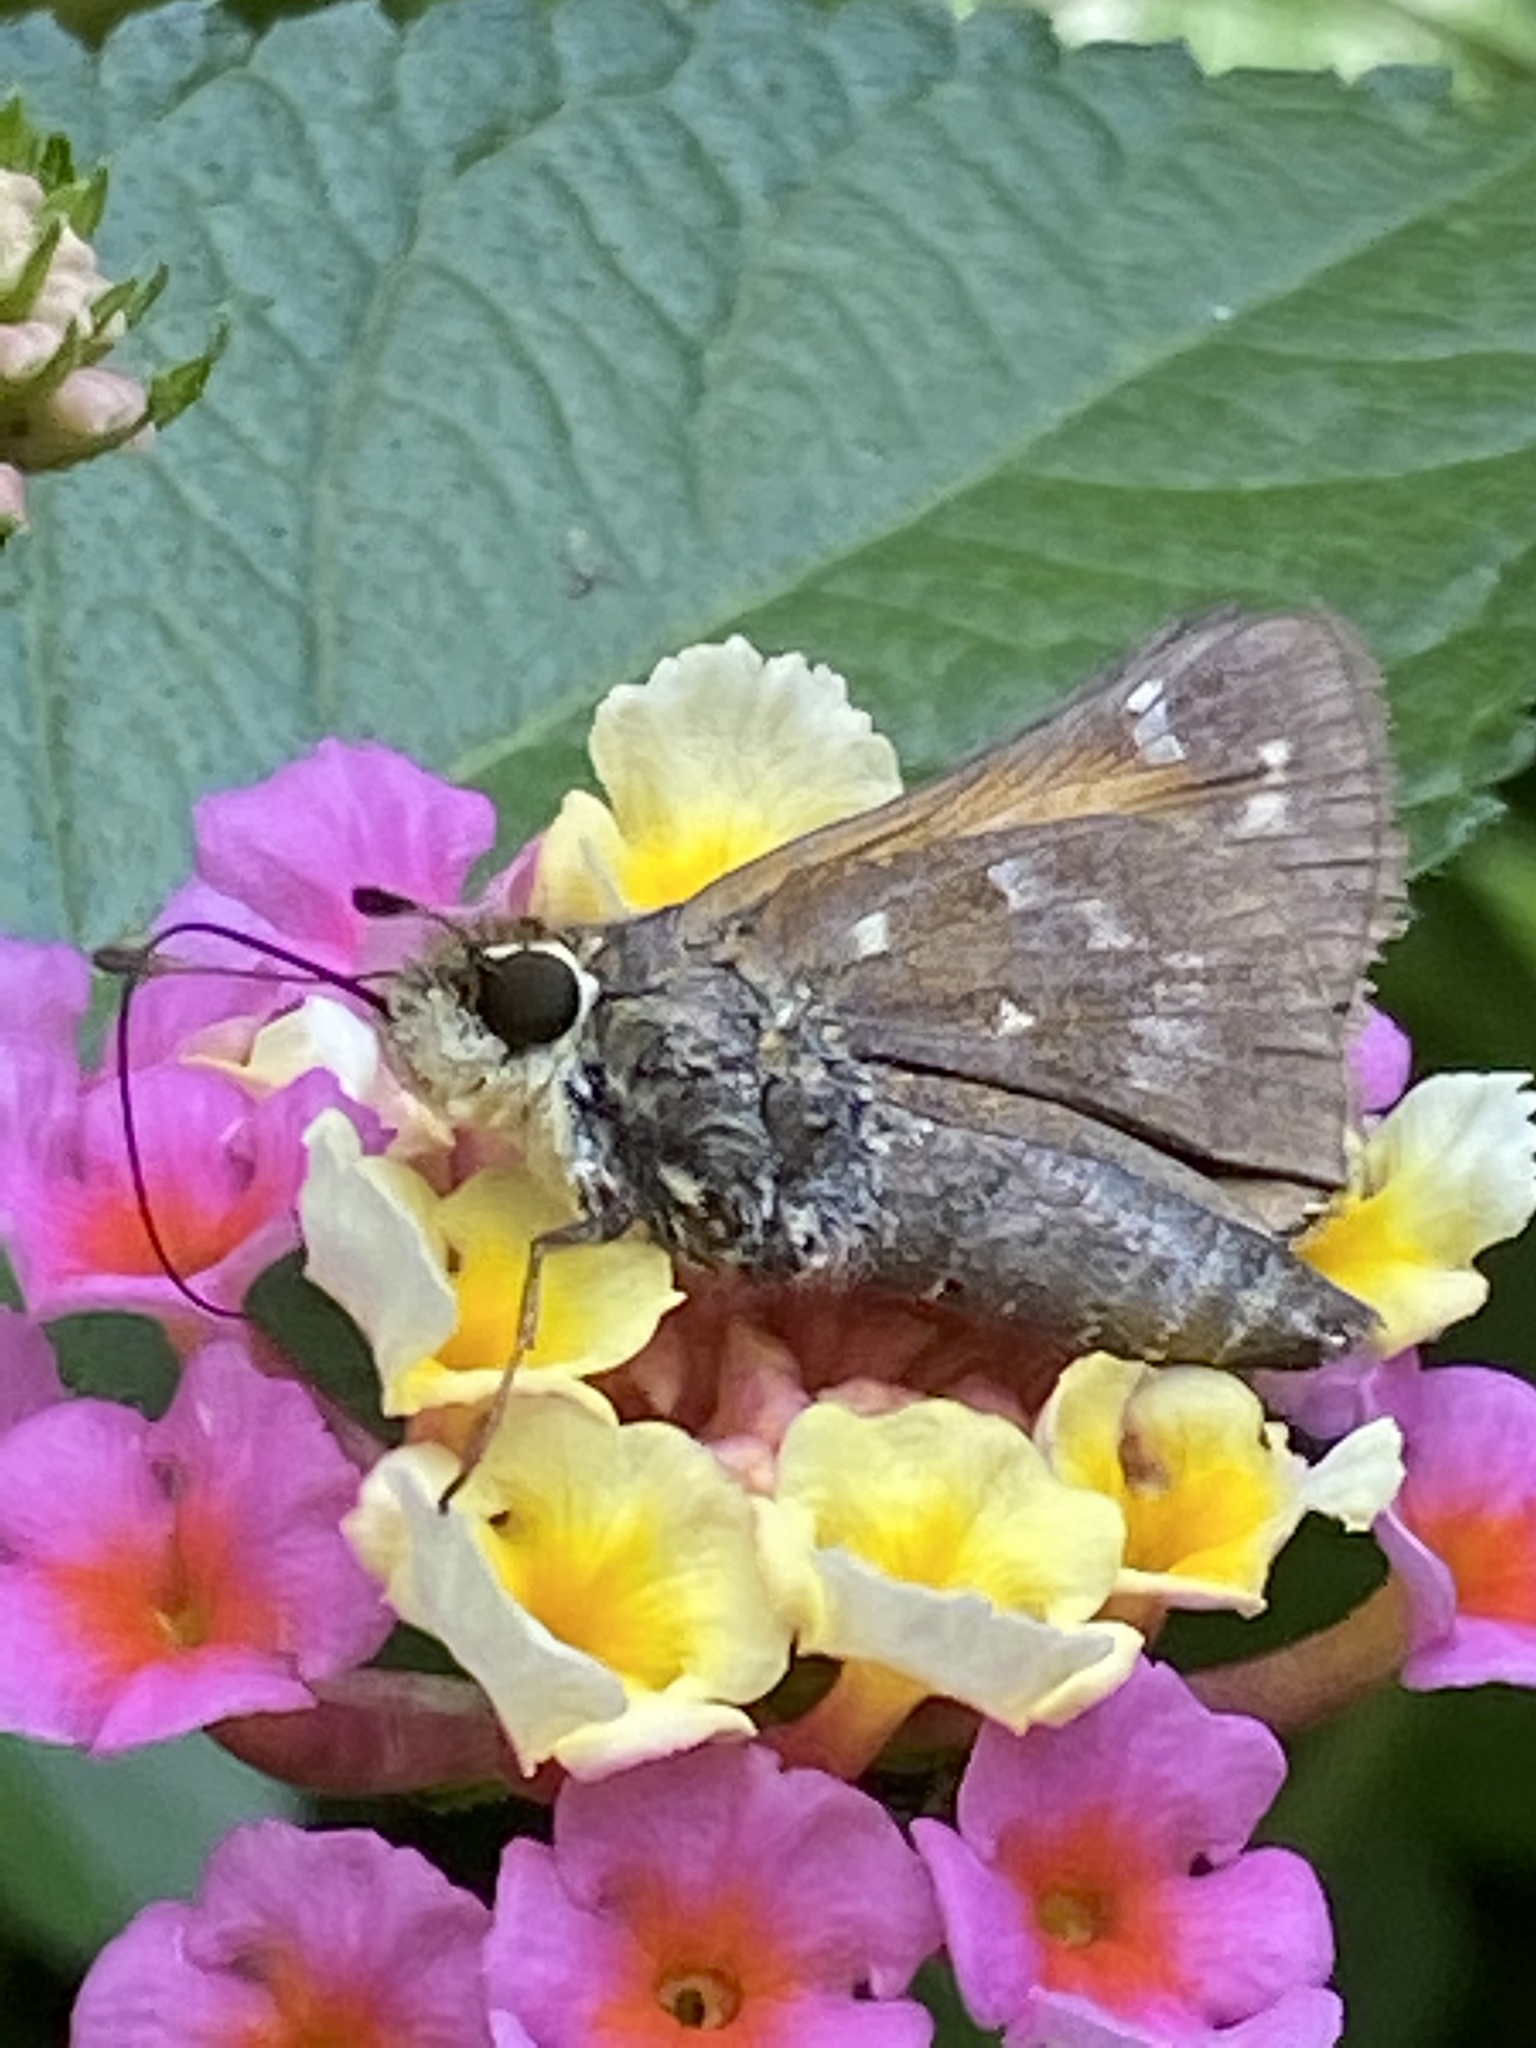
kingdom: Animalia
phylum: Arthropoda
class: Insecta
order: Lepidoptera
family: Hesperiidae
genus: Atalopedes
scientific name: Atalopedes
